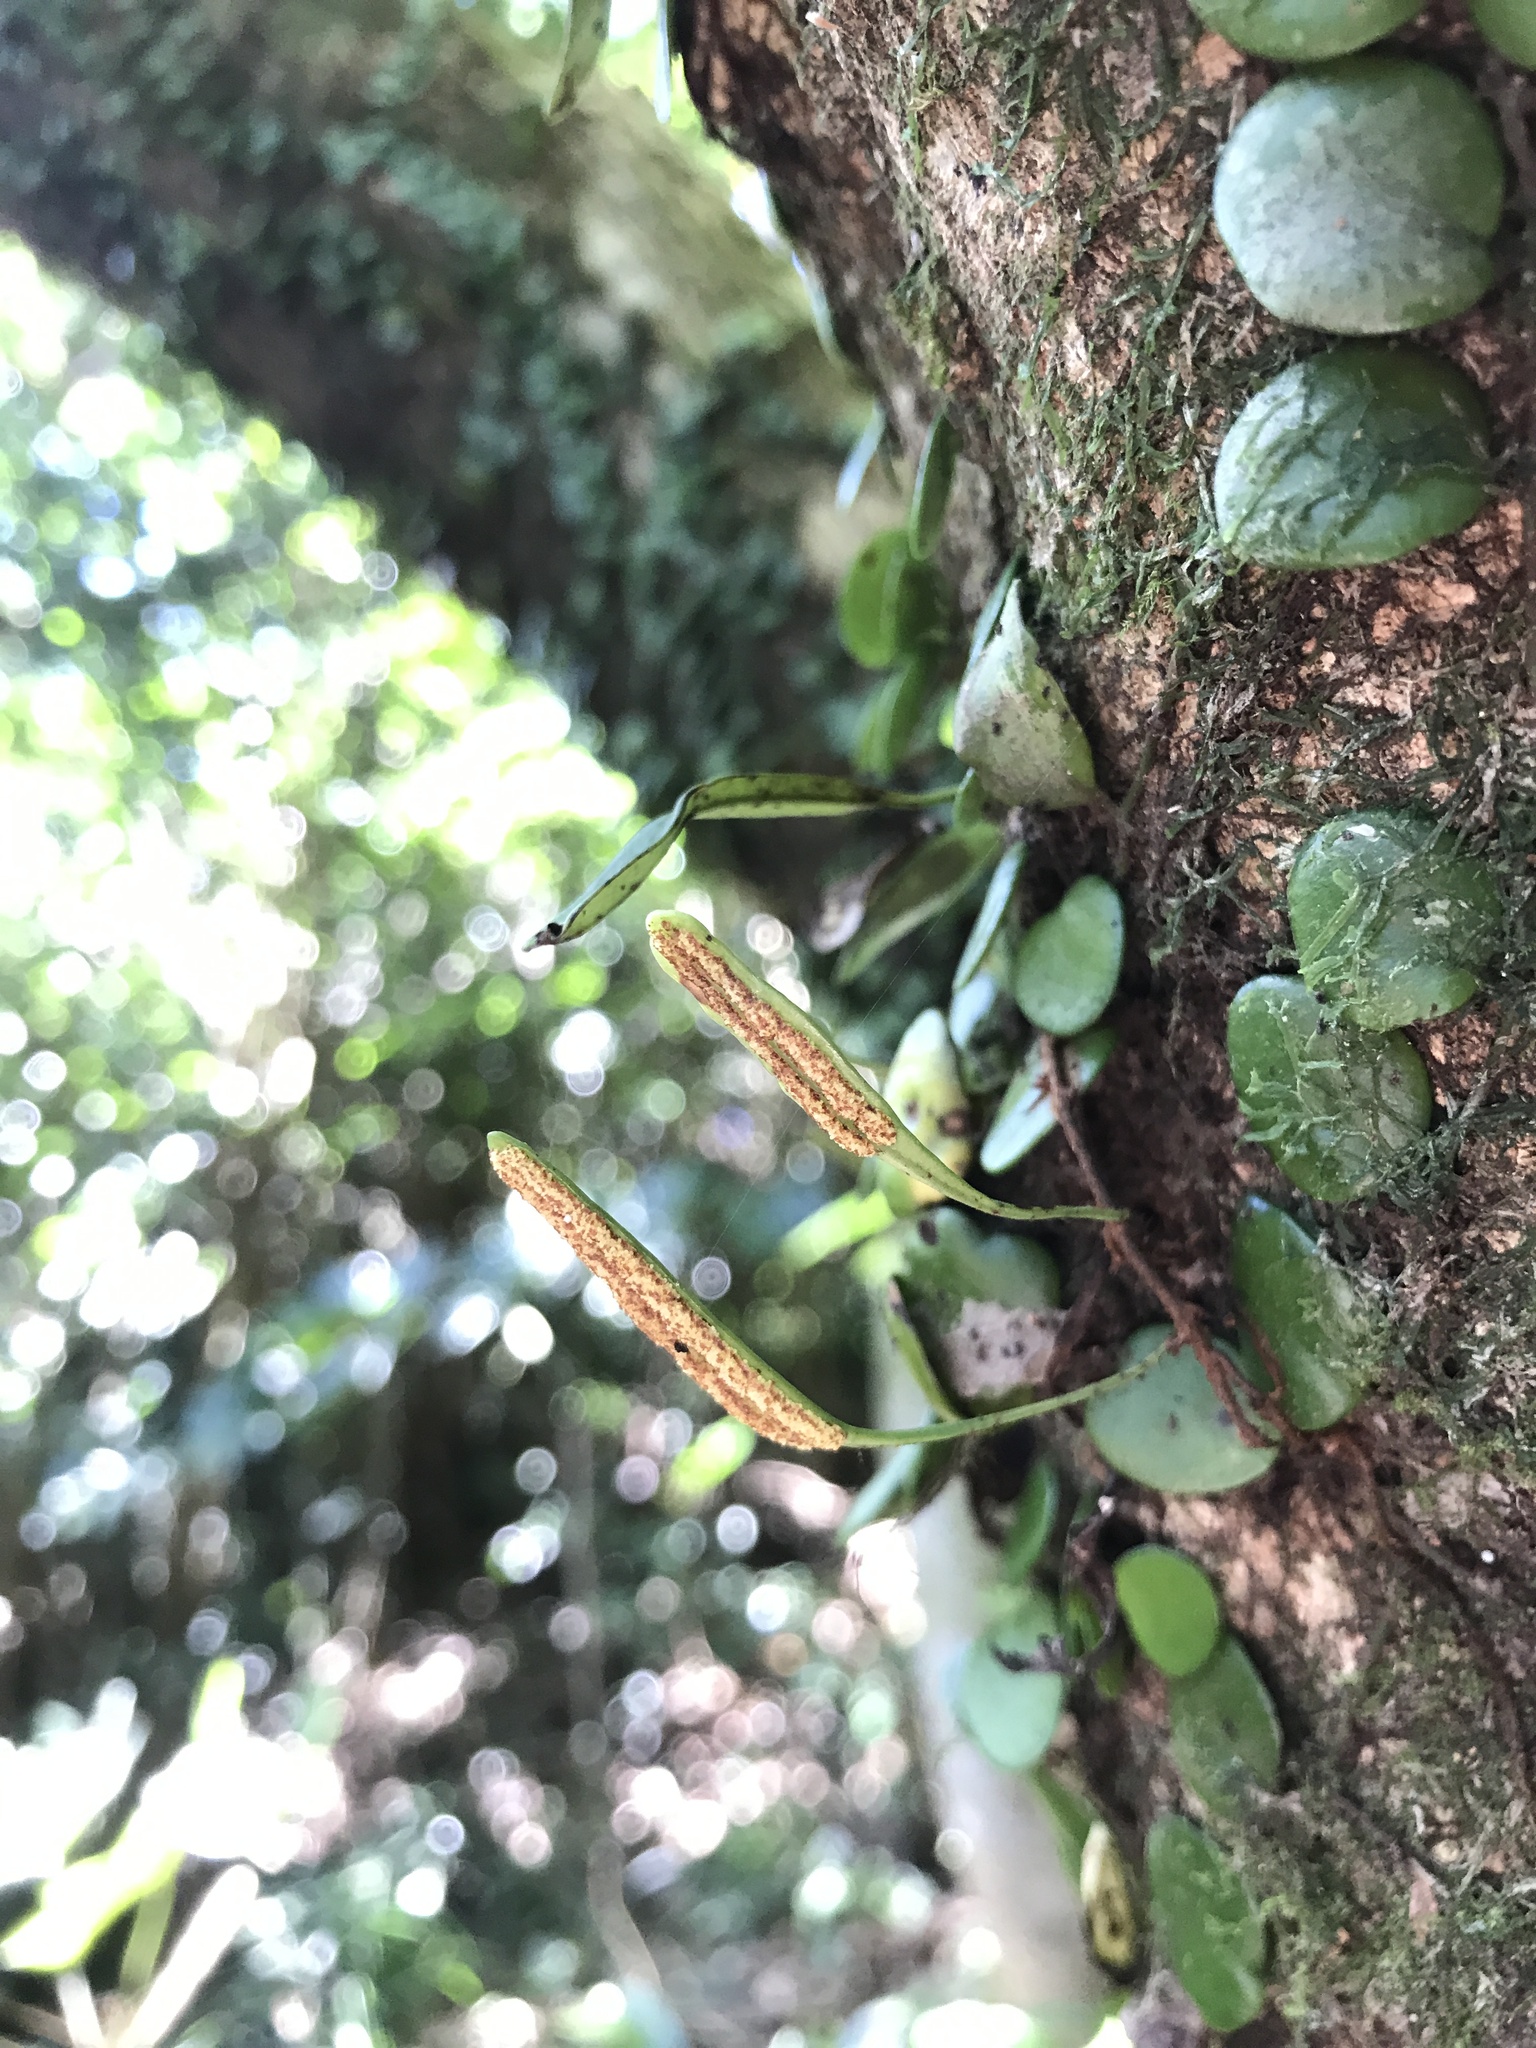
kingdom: Plantae
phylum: Tracheophyta
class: Polypodiopsida
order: Polypodiales
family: Polypodiaceae
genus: Lepisorus
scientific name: Lepisorus microphyllus
